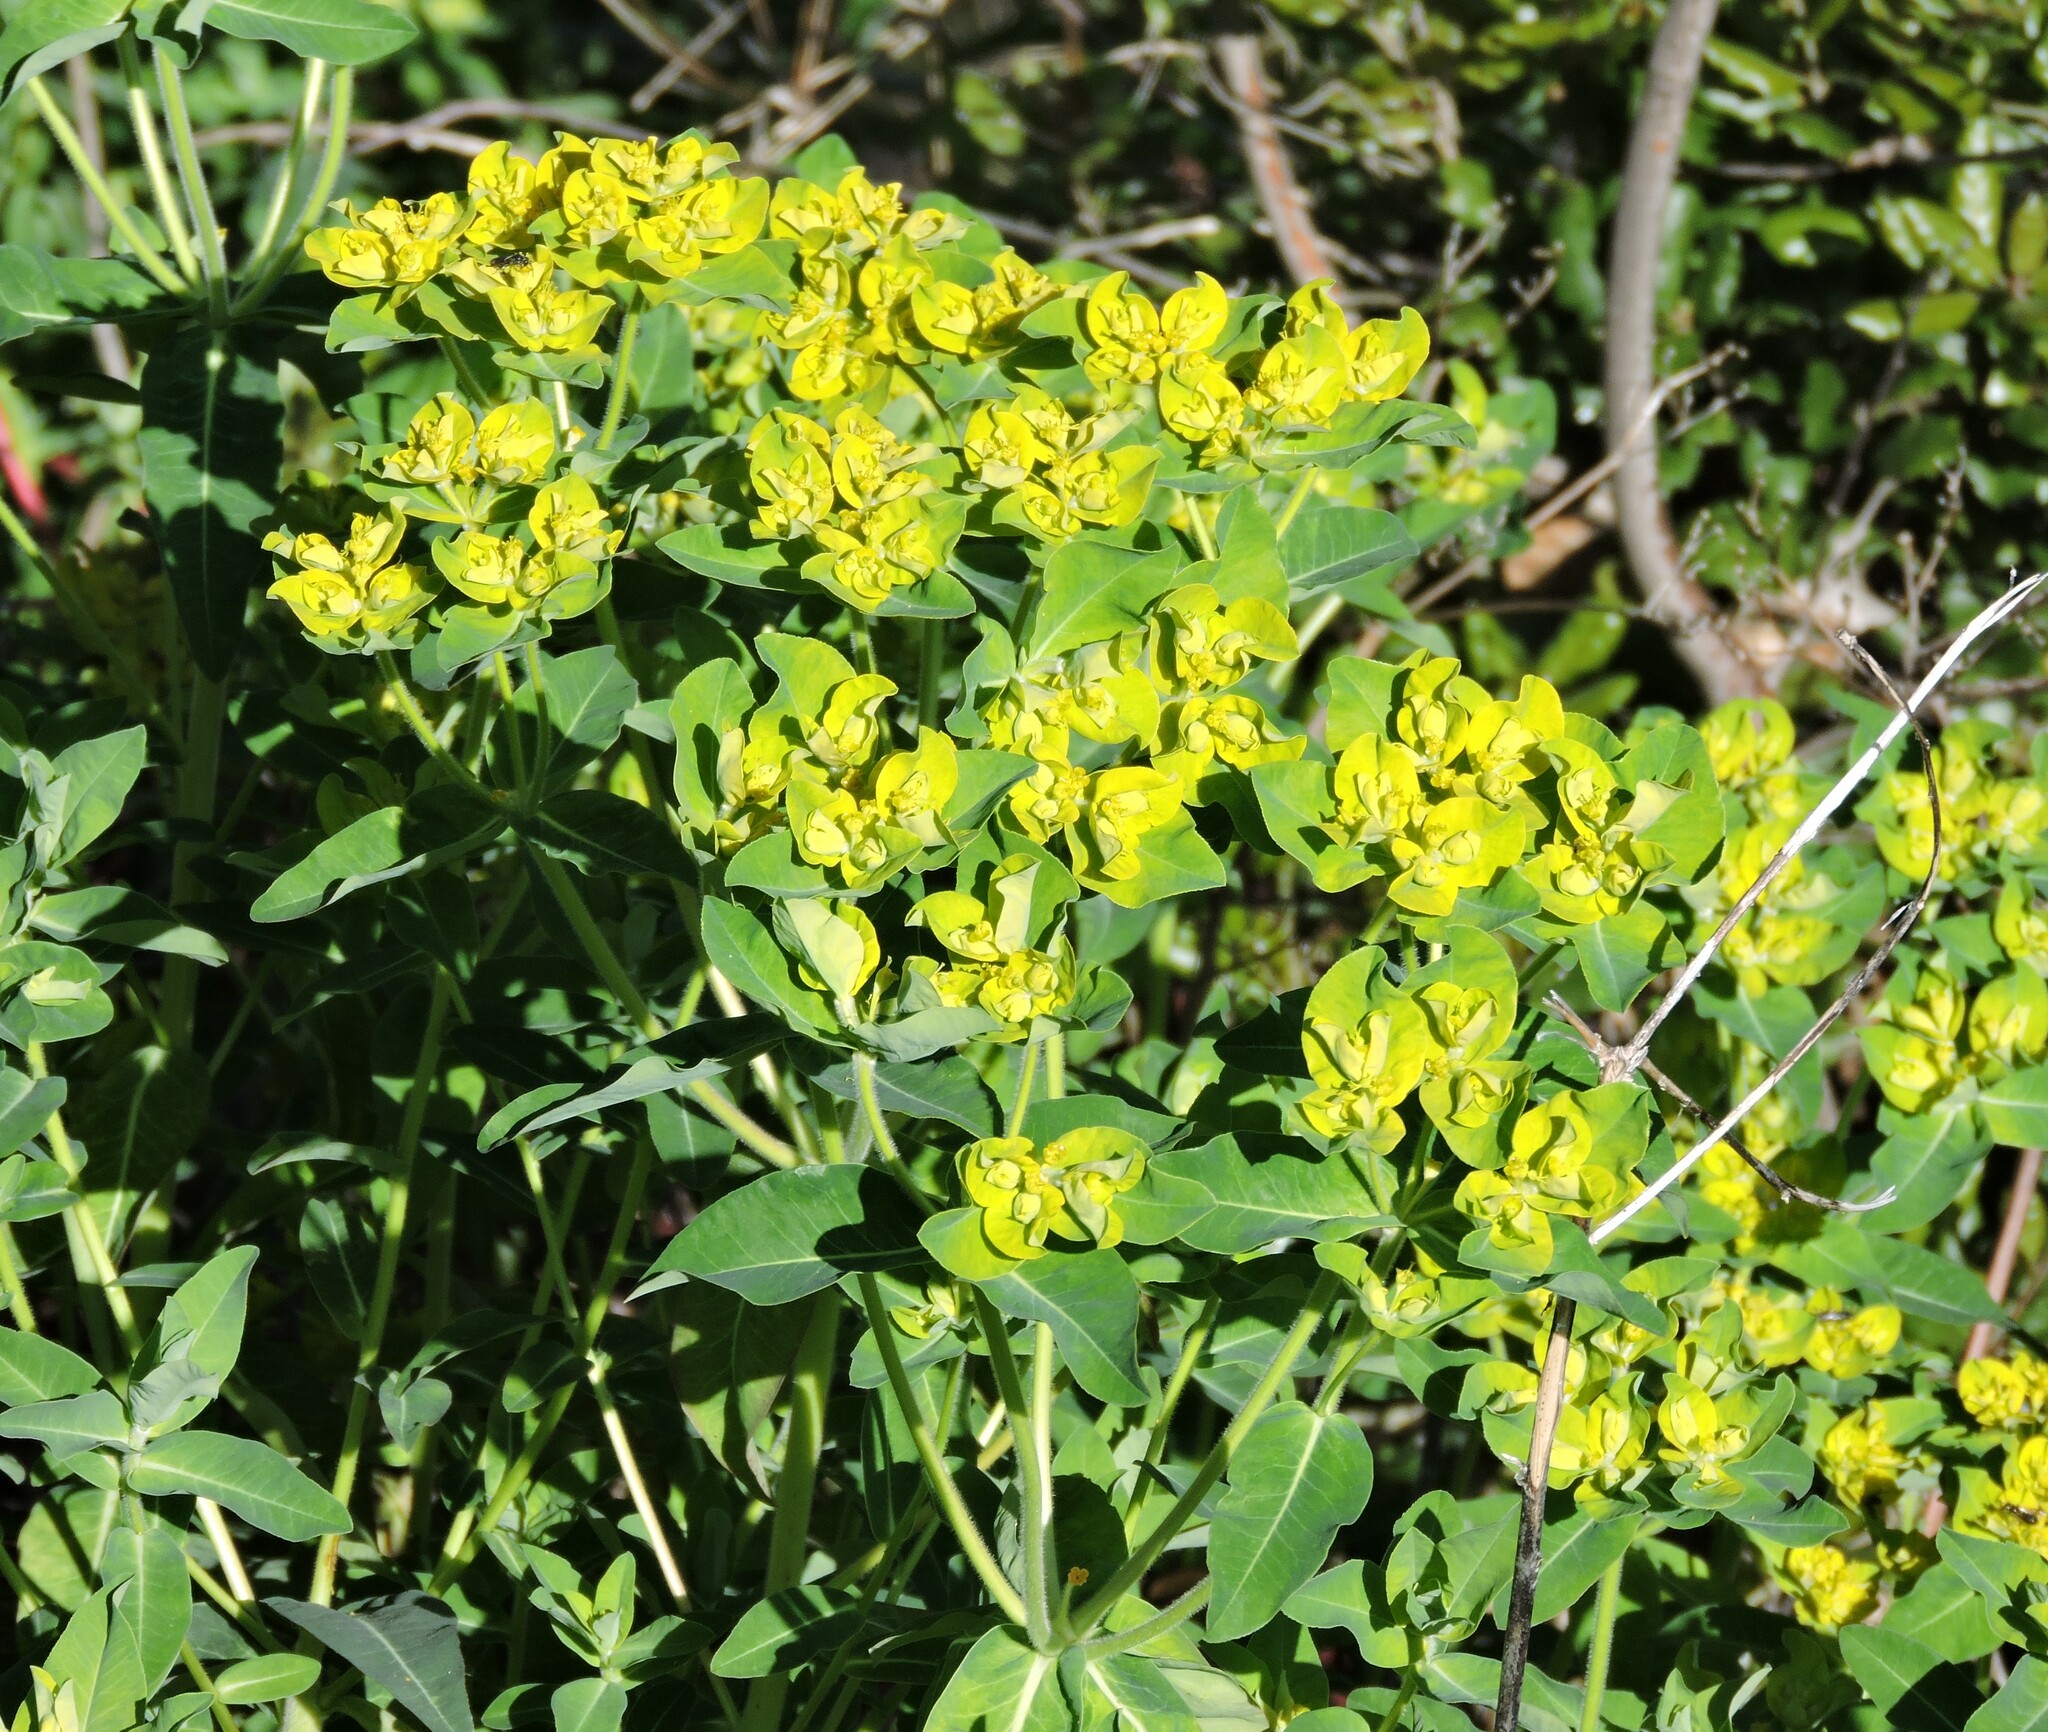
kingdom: Plantae
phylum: Tracheophyta
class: Magnoliopsida
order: Malpighiales
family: Euphorbiaceae
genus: Euphorbia
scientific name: Euphorbia oblongata
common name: Balkan spurge
